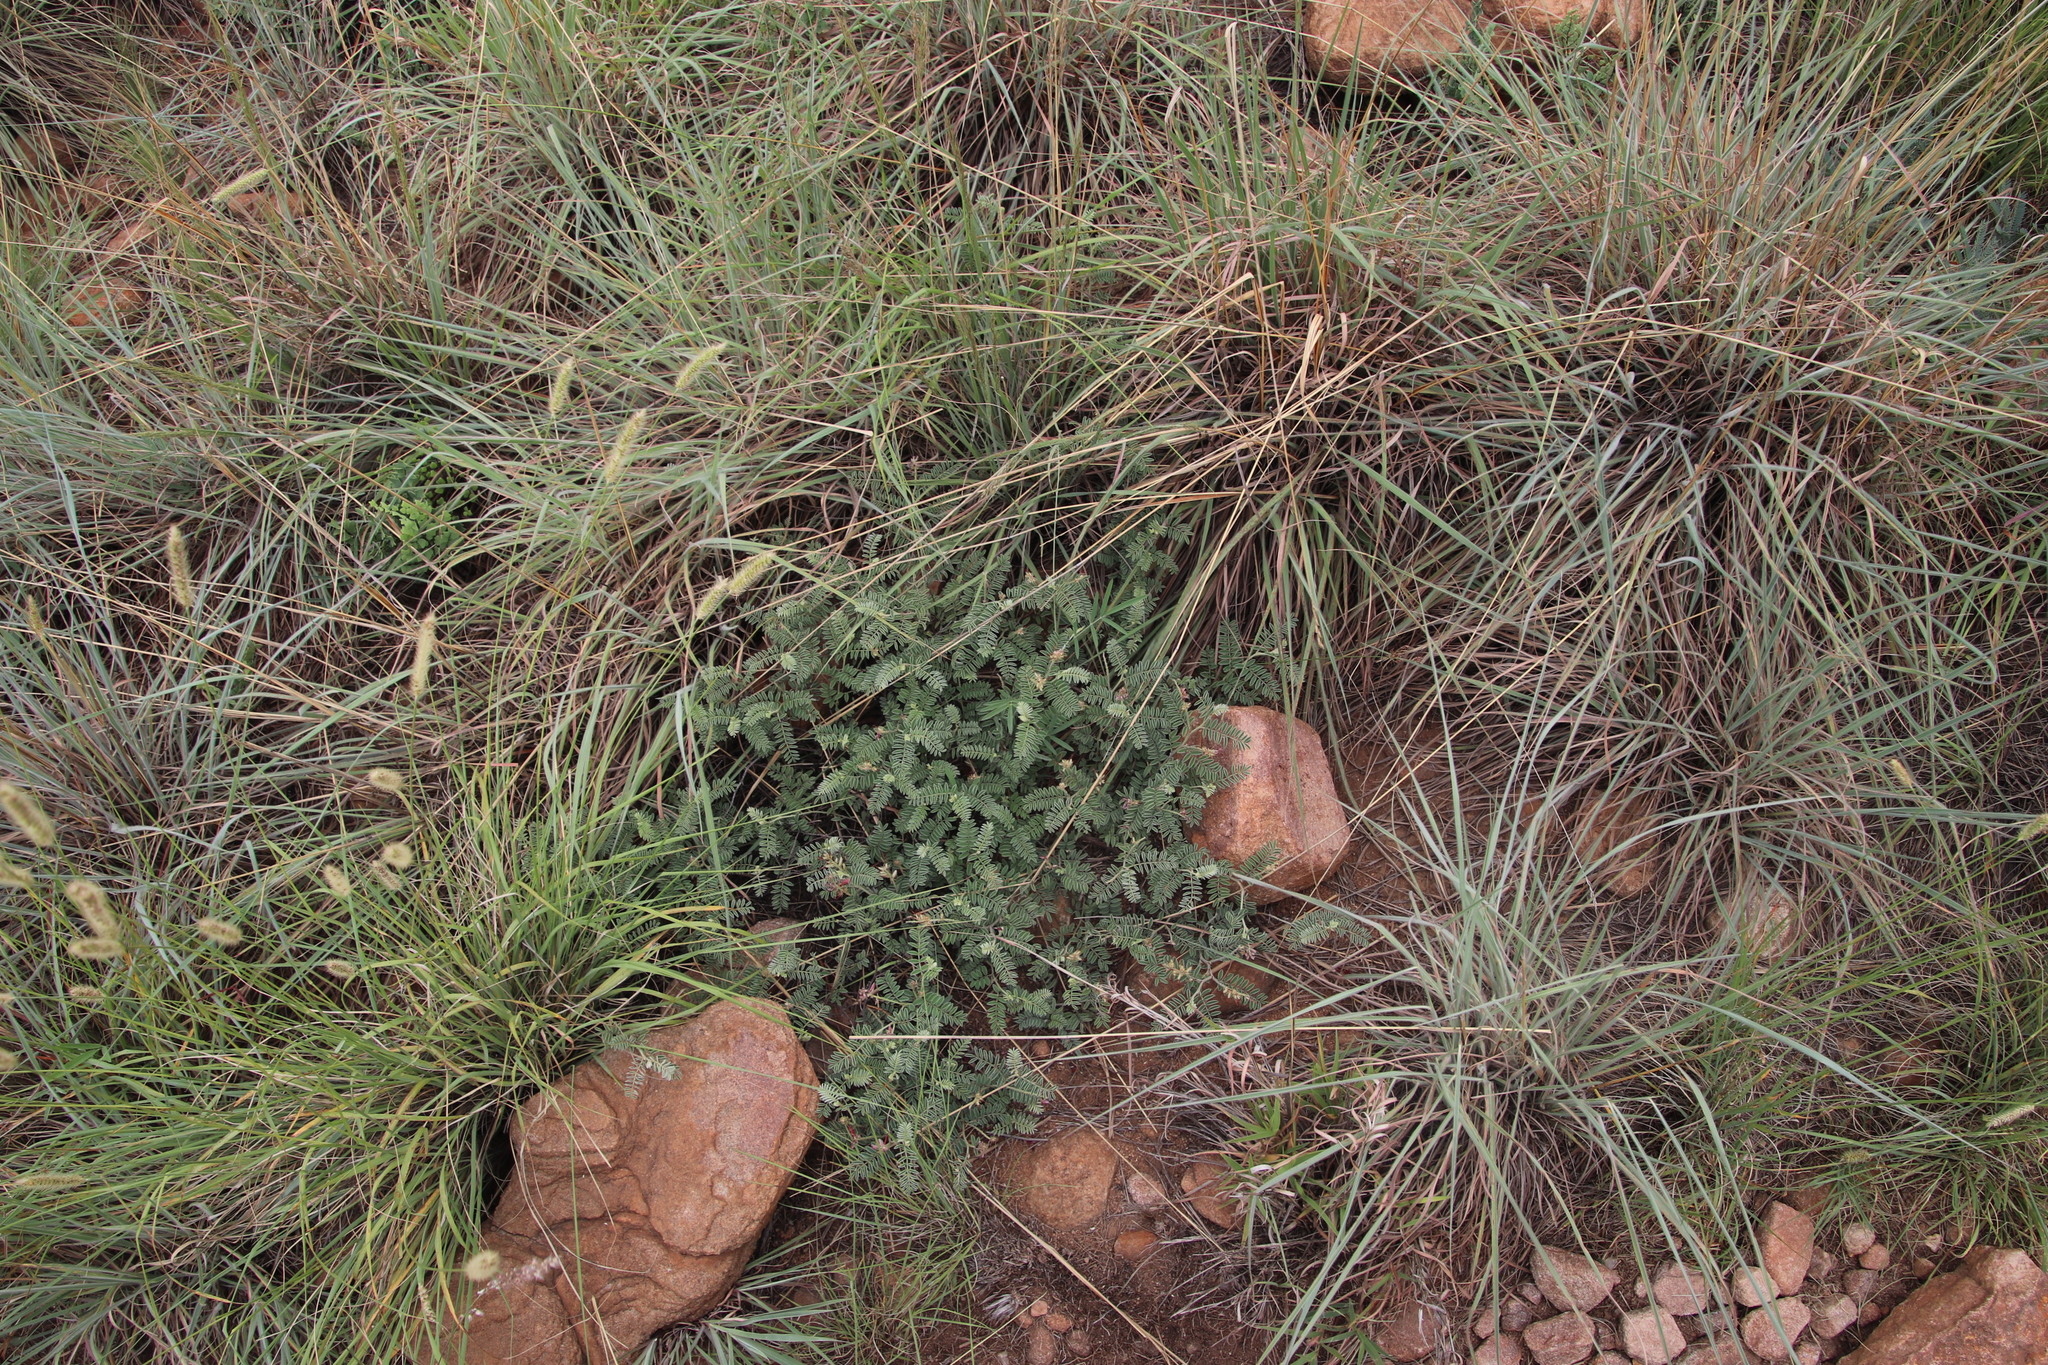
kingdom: Plantae
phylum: Tracheophyta
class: Magnoliopsida
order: Fabales
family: Fabaceae
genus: Indigofera
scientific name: Indigofera oxytropis
